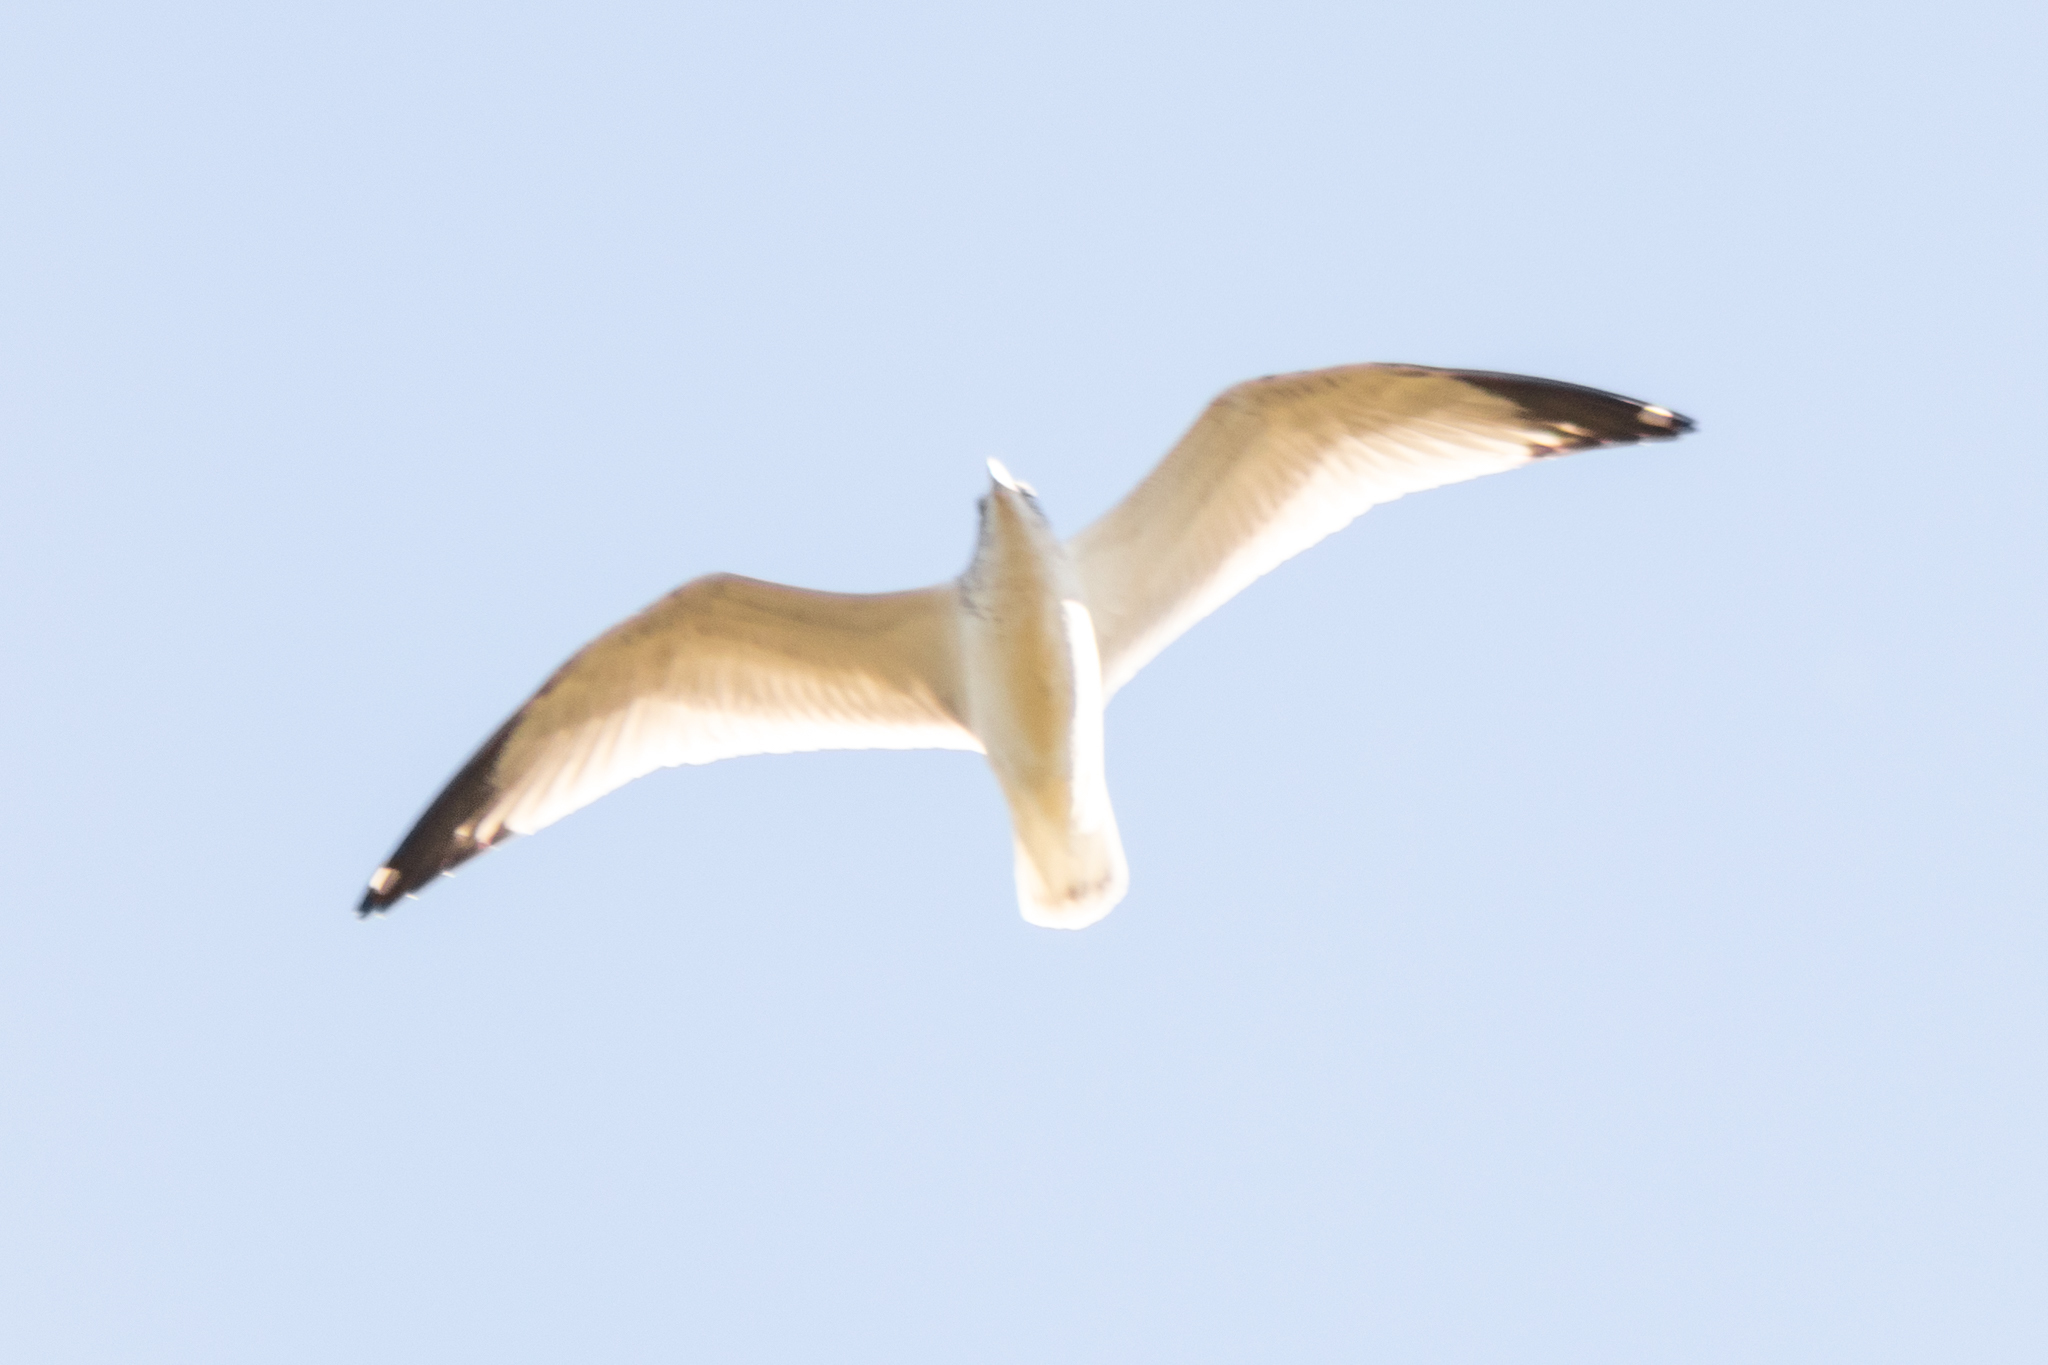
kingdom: Animalia
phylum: Chordata
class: Aves
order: Charadriiformes
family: Laridae
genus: Larus
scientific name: Larus delawarensis
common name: Ring-billed gull
